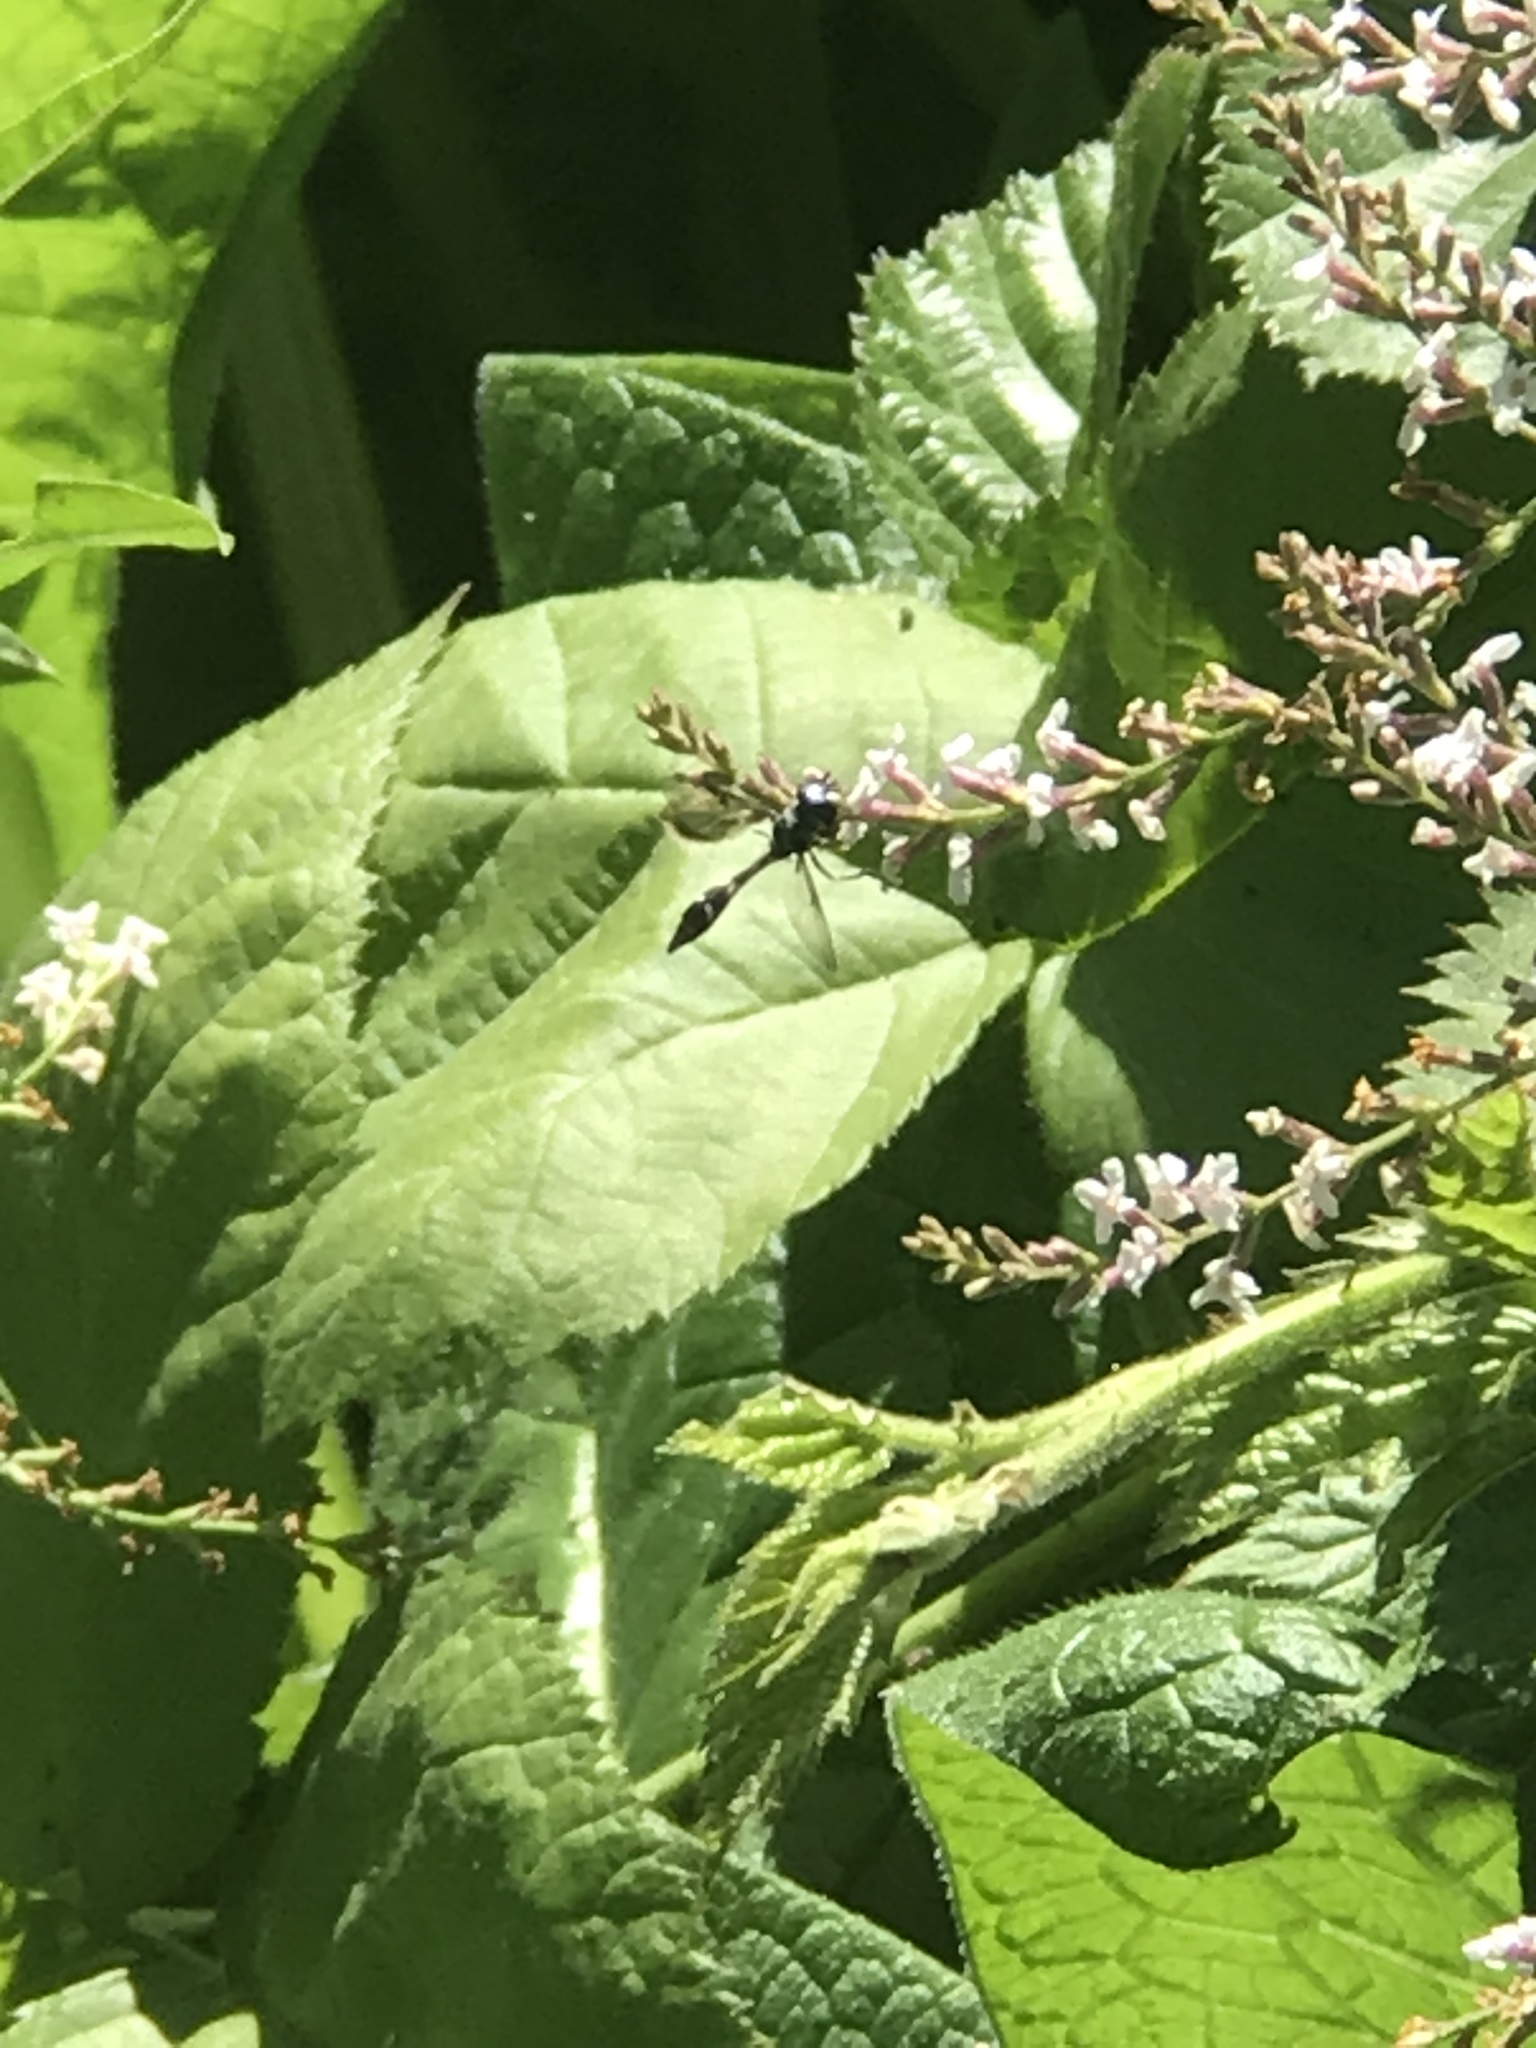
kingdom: Animalia
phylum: Arthropoda
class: Insecta
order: Diptera
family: Syrphidae
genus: Dioprosopa
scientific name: Dioprosopa clavatus
